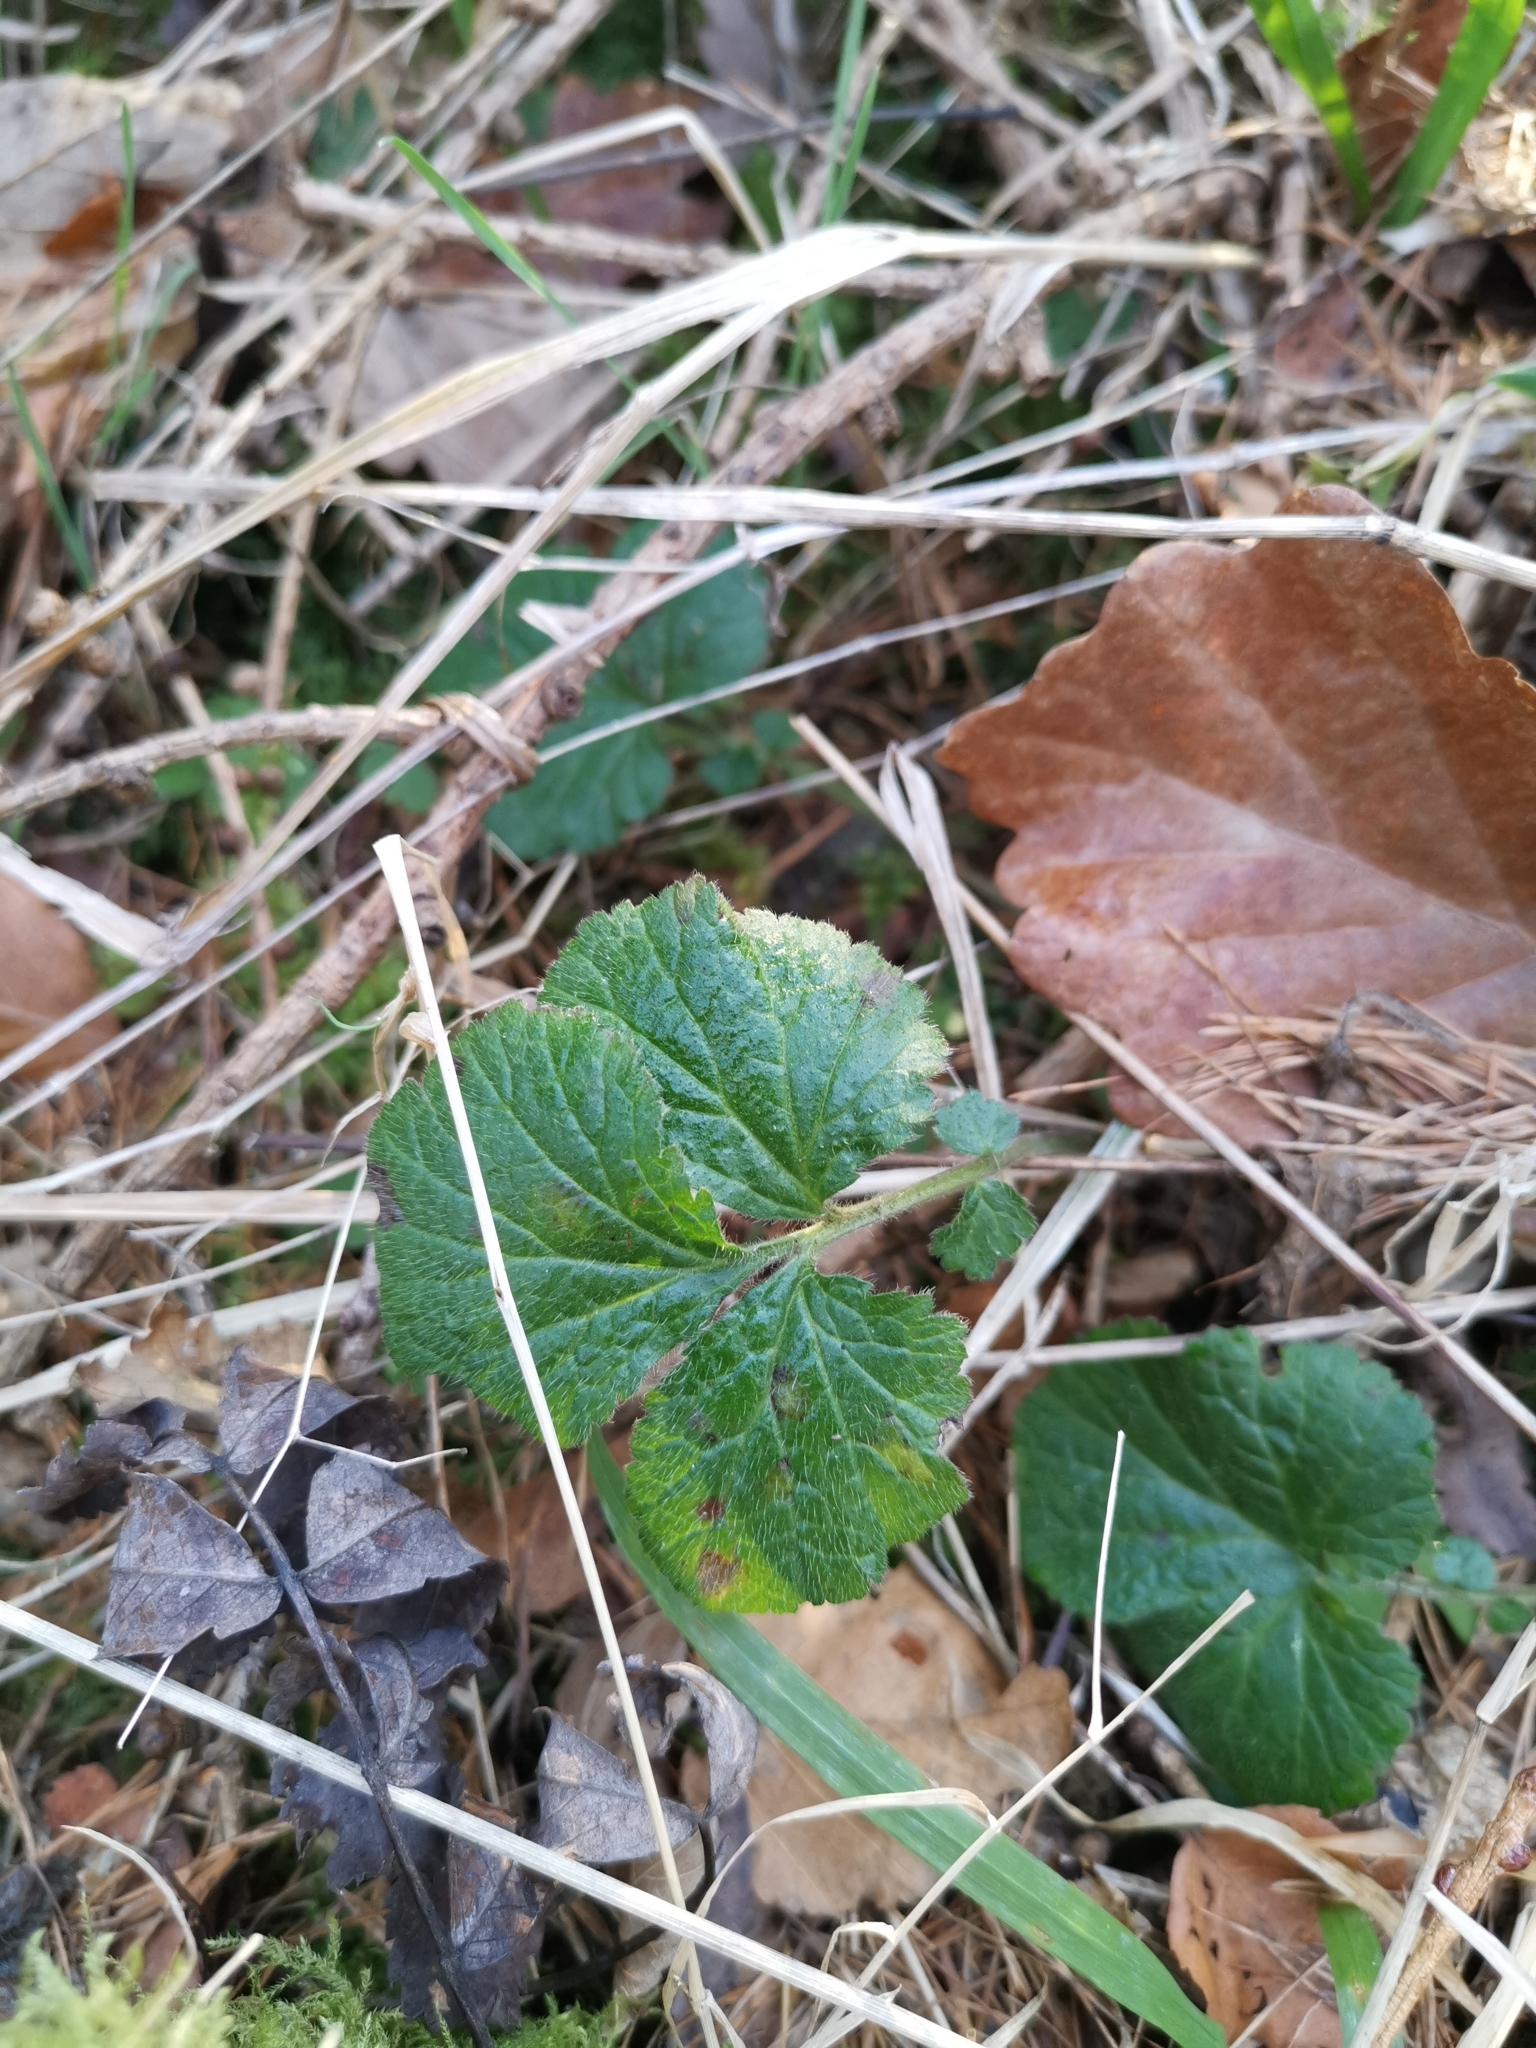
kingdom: Plantae
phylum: Tracheophyta
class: Magnoliopsida
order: Rosales
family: Rosaceae
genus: Geum
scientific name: Geum urbanum
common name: Wood avens
